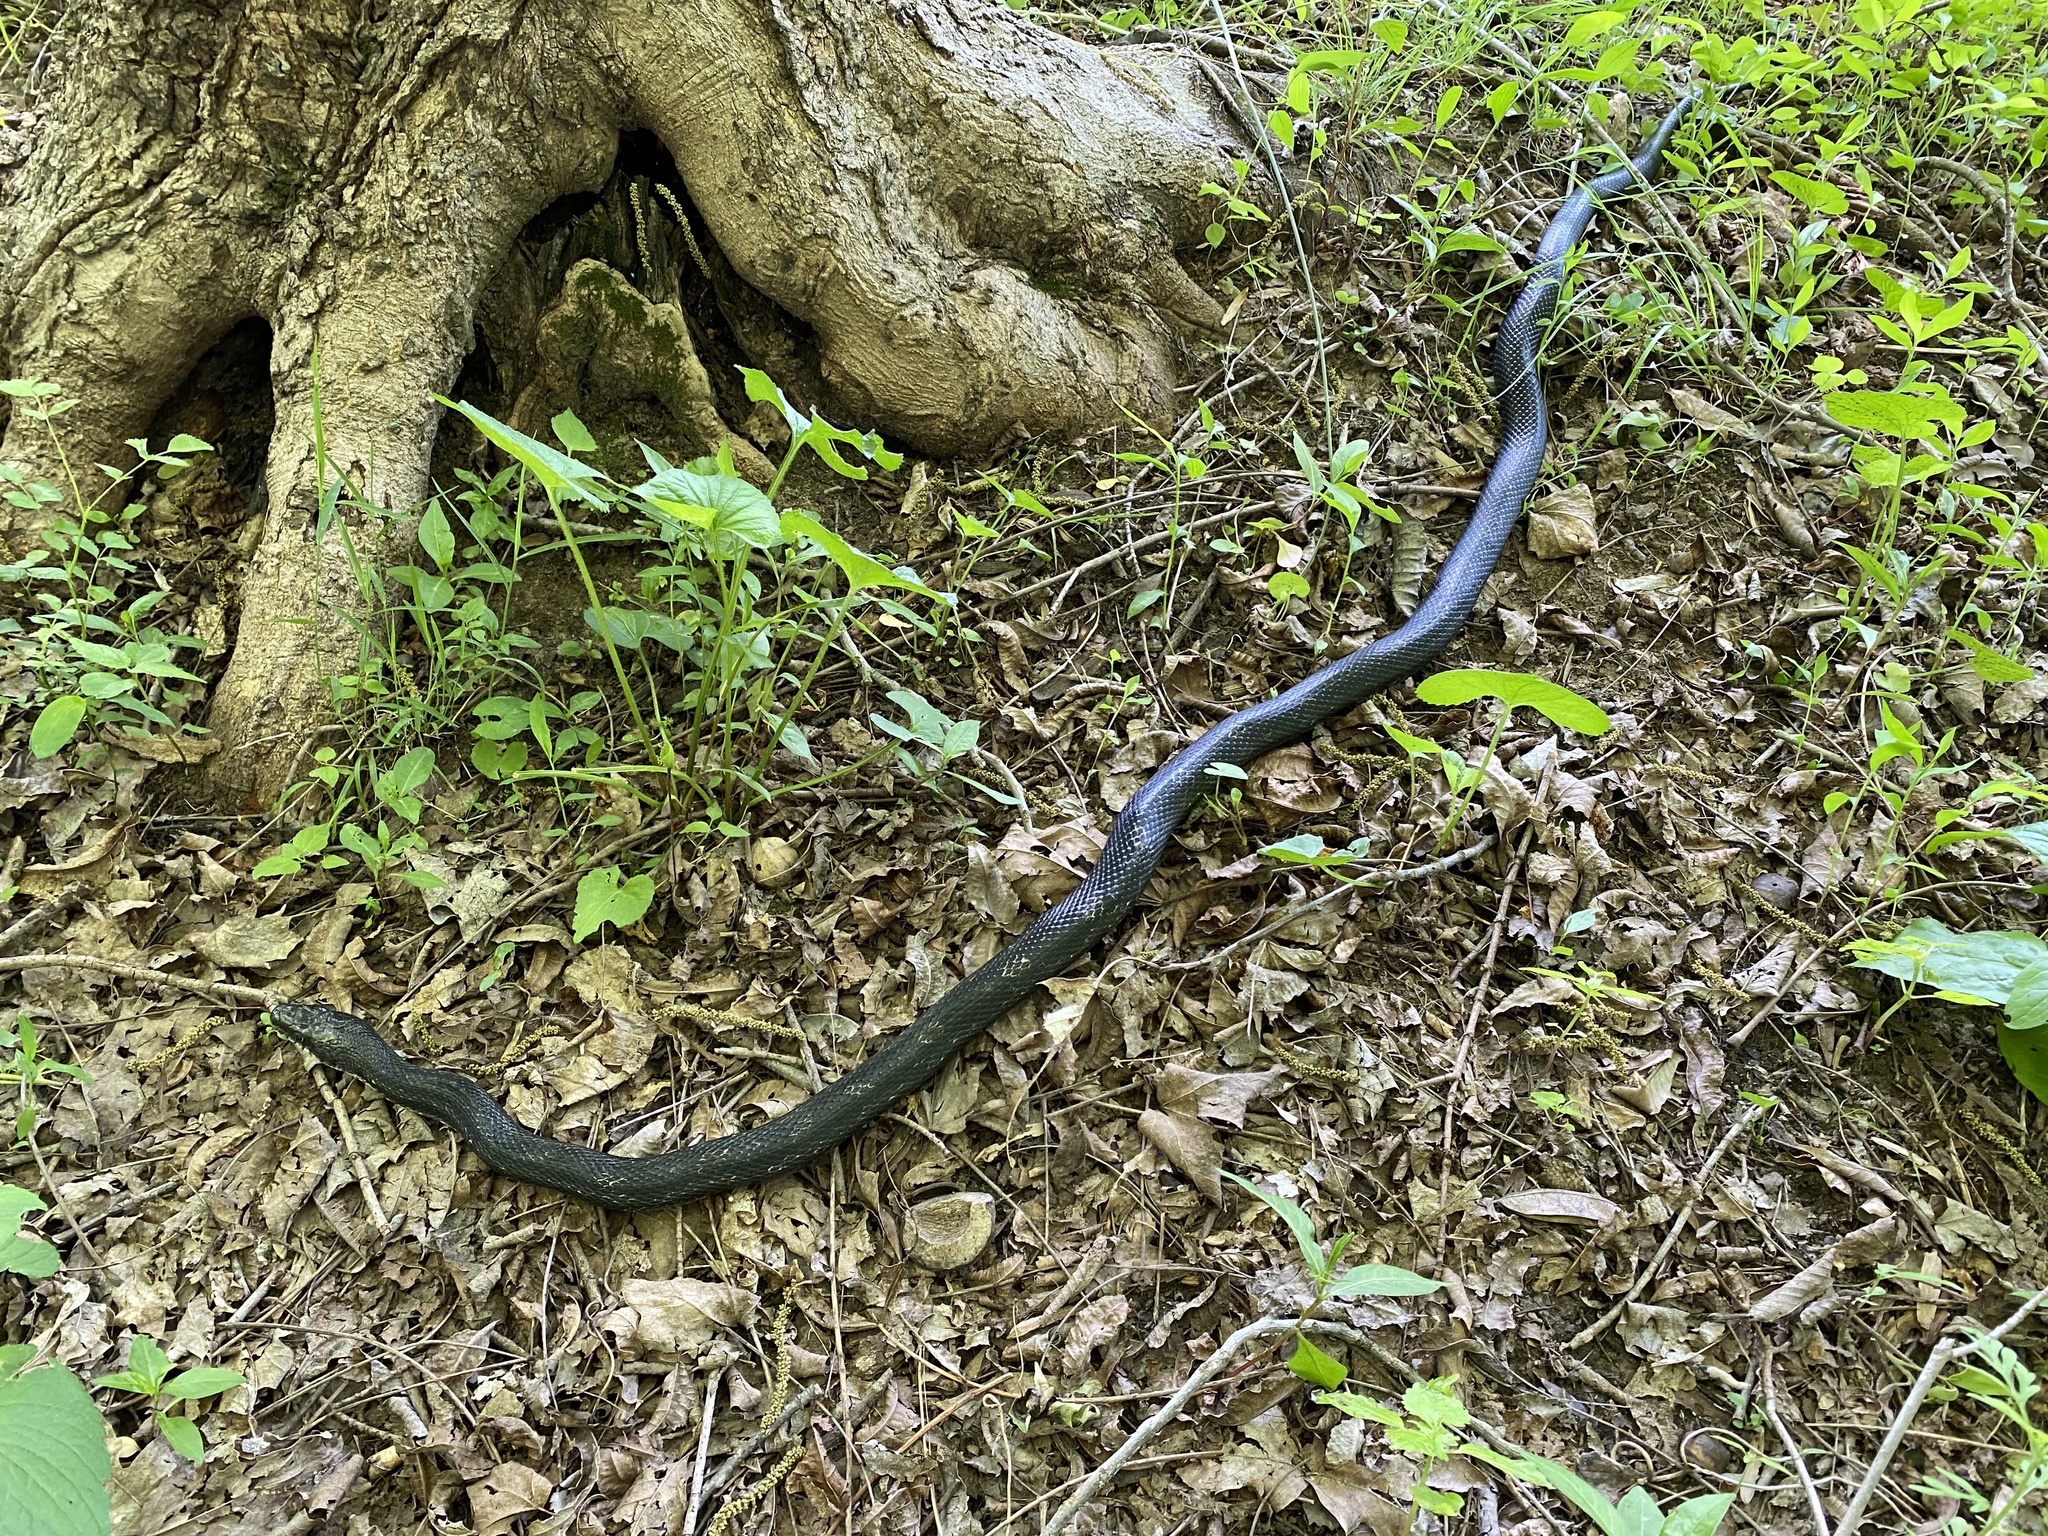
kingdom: Animalia
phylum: Chordata
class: Squamata
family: Colubridae
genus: Pantherophis
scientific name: Pantherophis spiloides
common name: Gray rat snake
